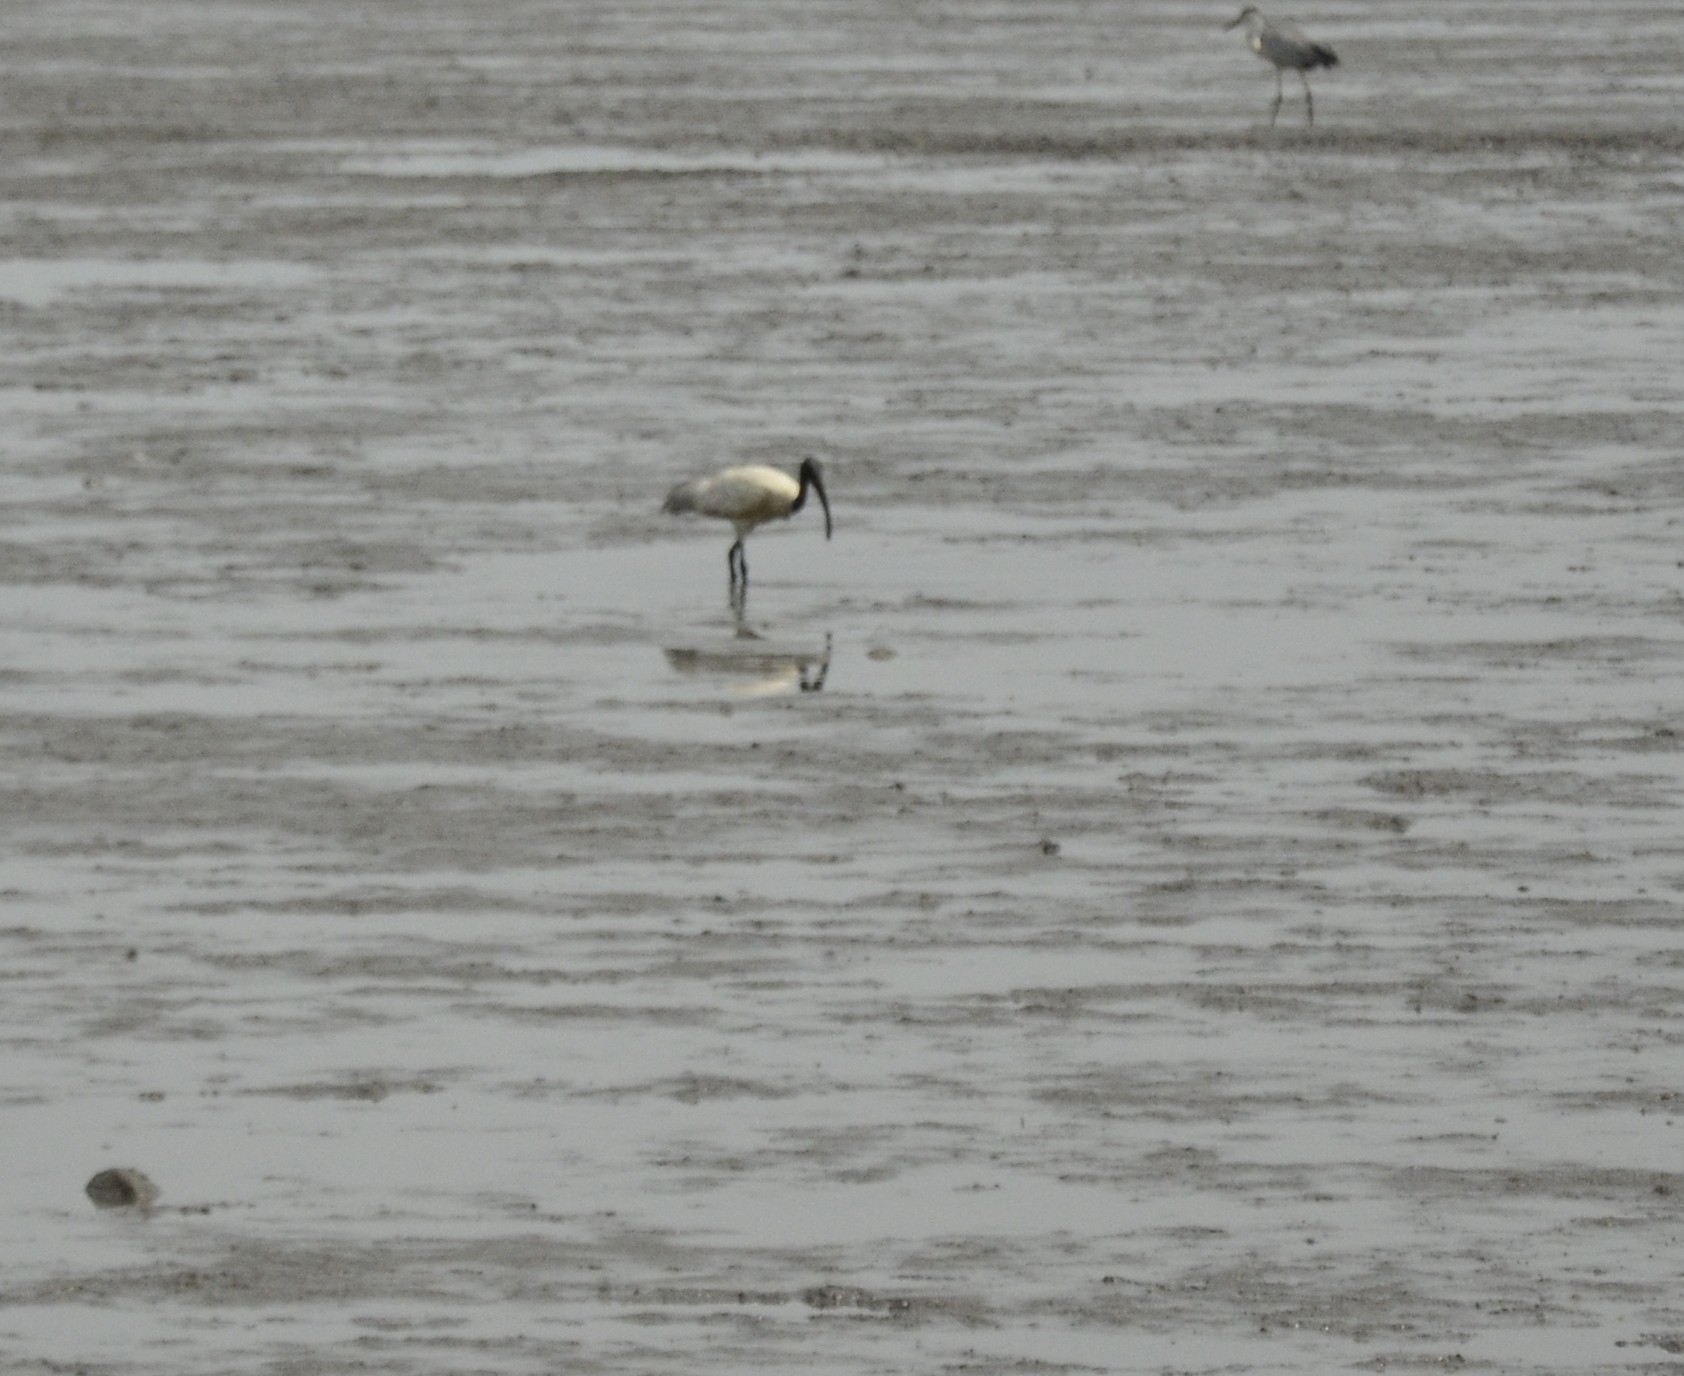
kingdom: Animalia
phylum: Chordata
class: Aves
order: Pelecaniformes
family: Threskiornithidae
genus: Threskiornis
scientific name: Threskiornis melanocephalus
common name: Black-headed ibis
